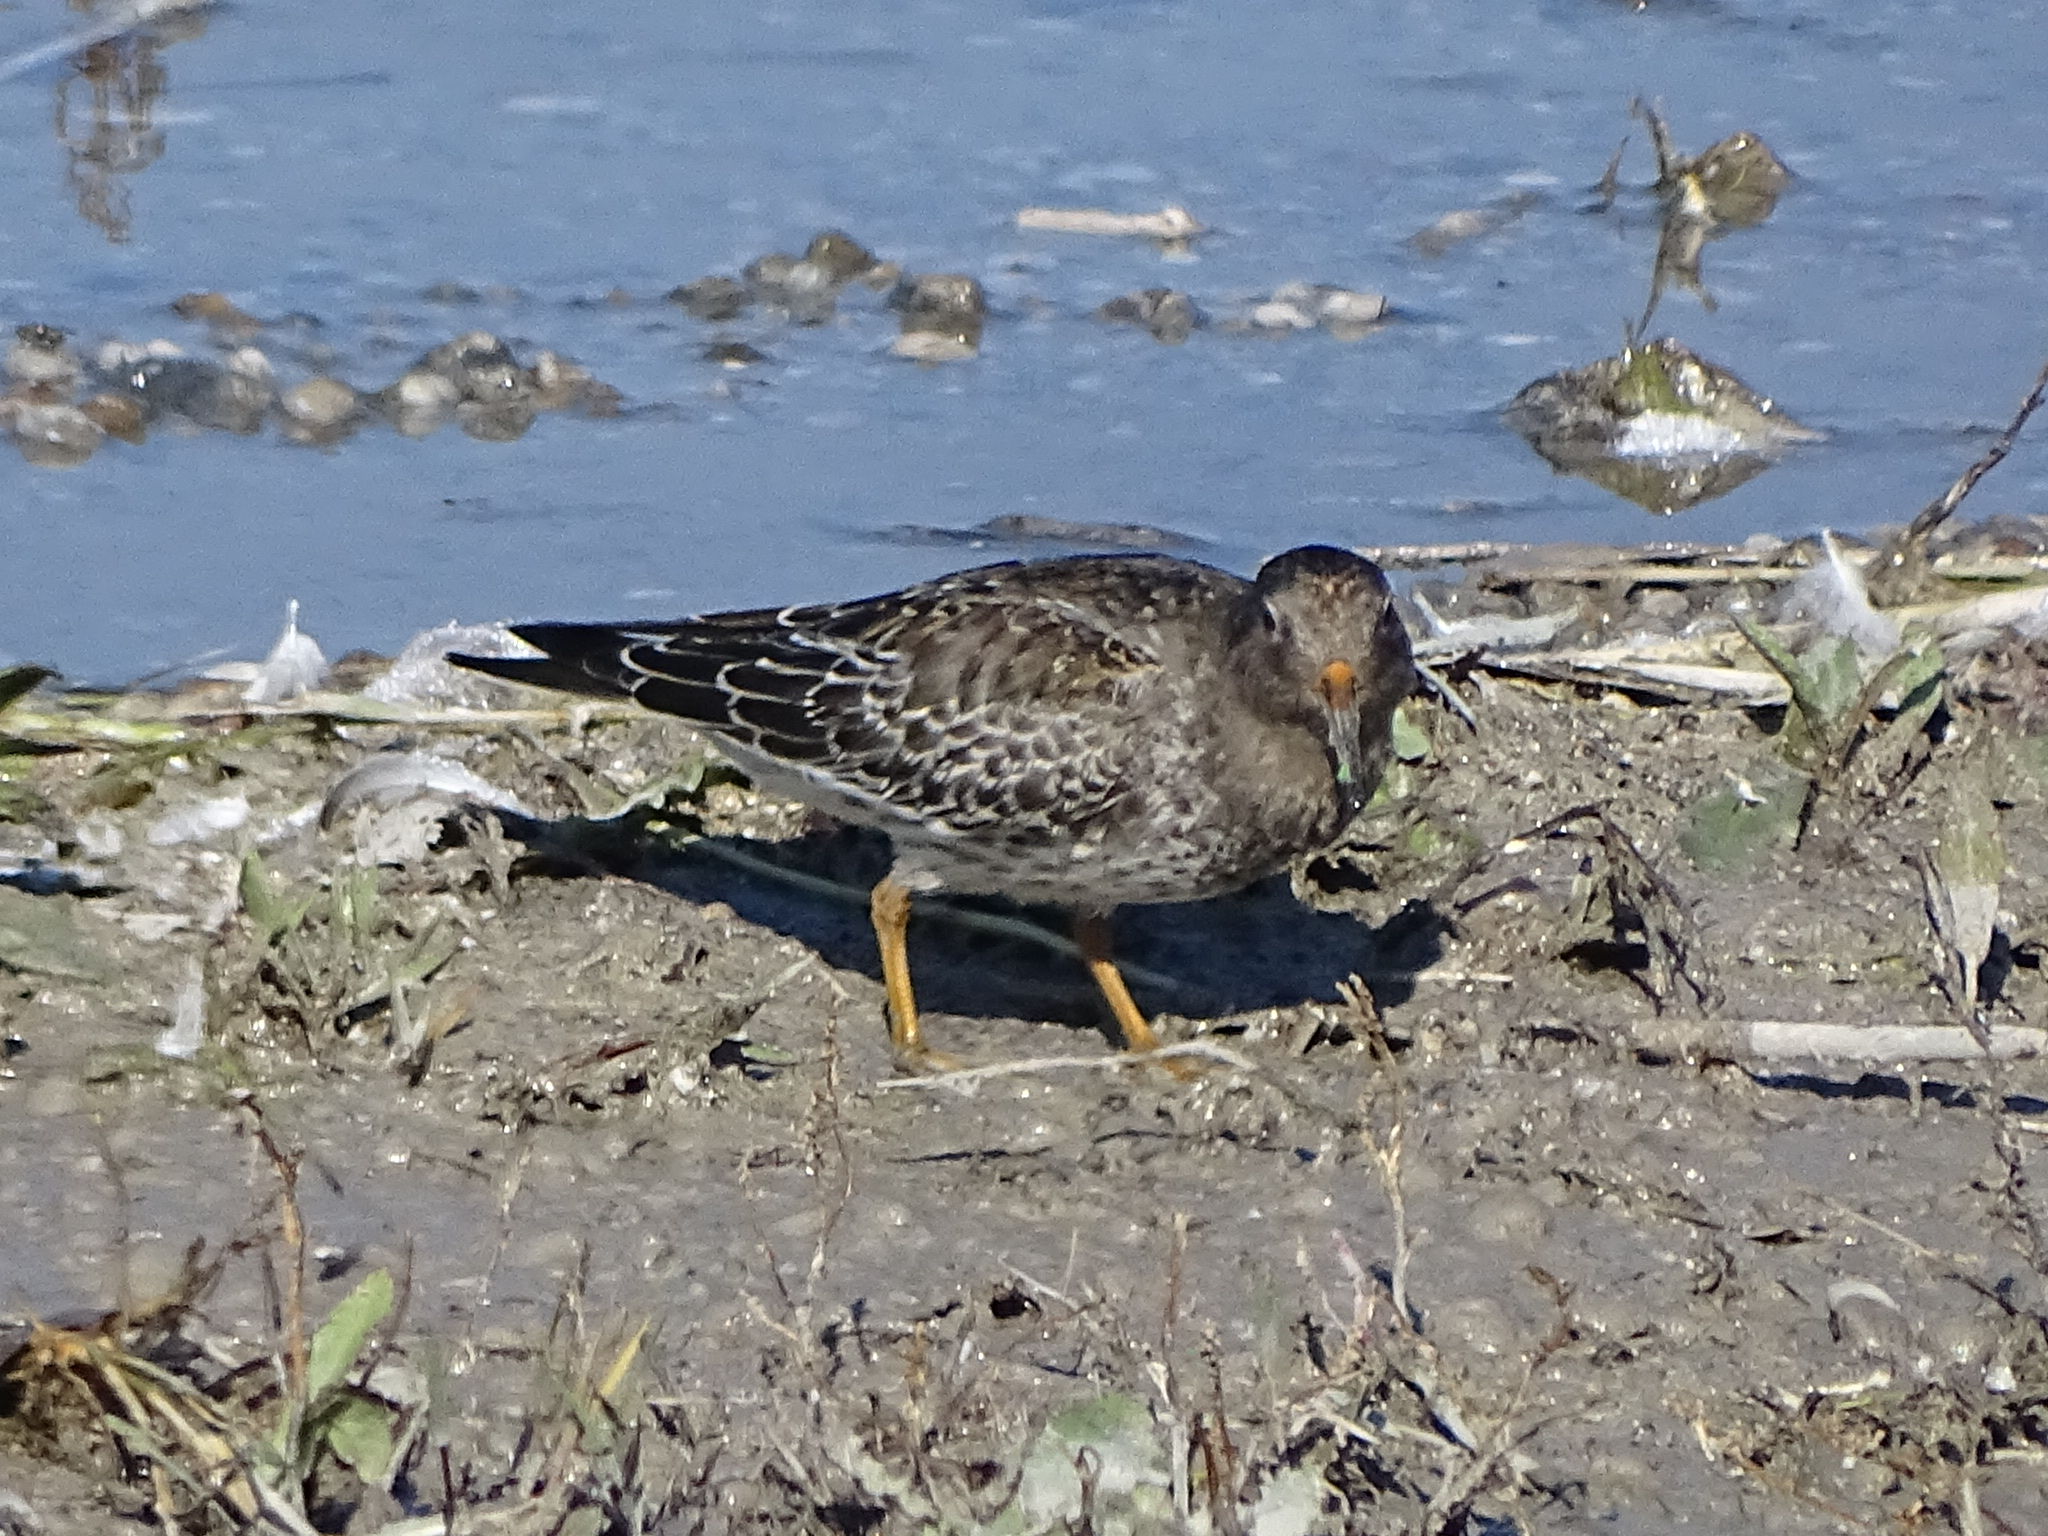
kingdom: Animalia
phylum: Chordata
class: Aves
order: Charadriiformes
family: Scolopacidae
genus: Calidris
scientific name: Calidris maritima
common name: Purple sandpiper
